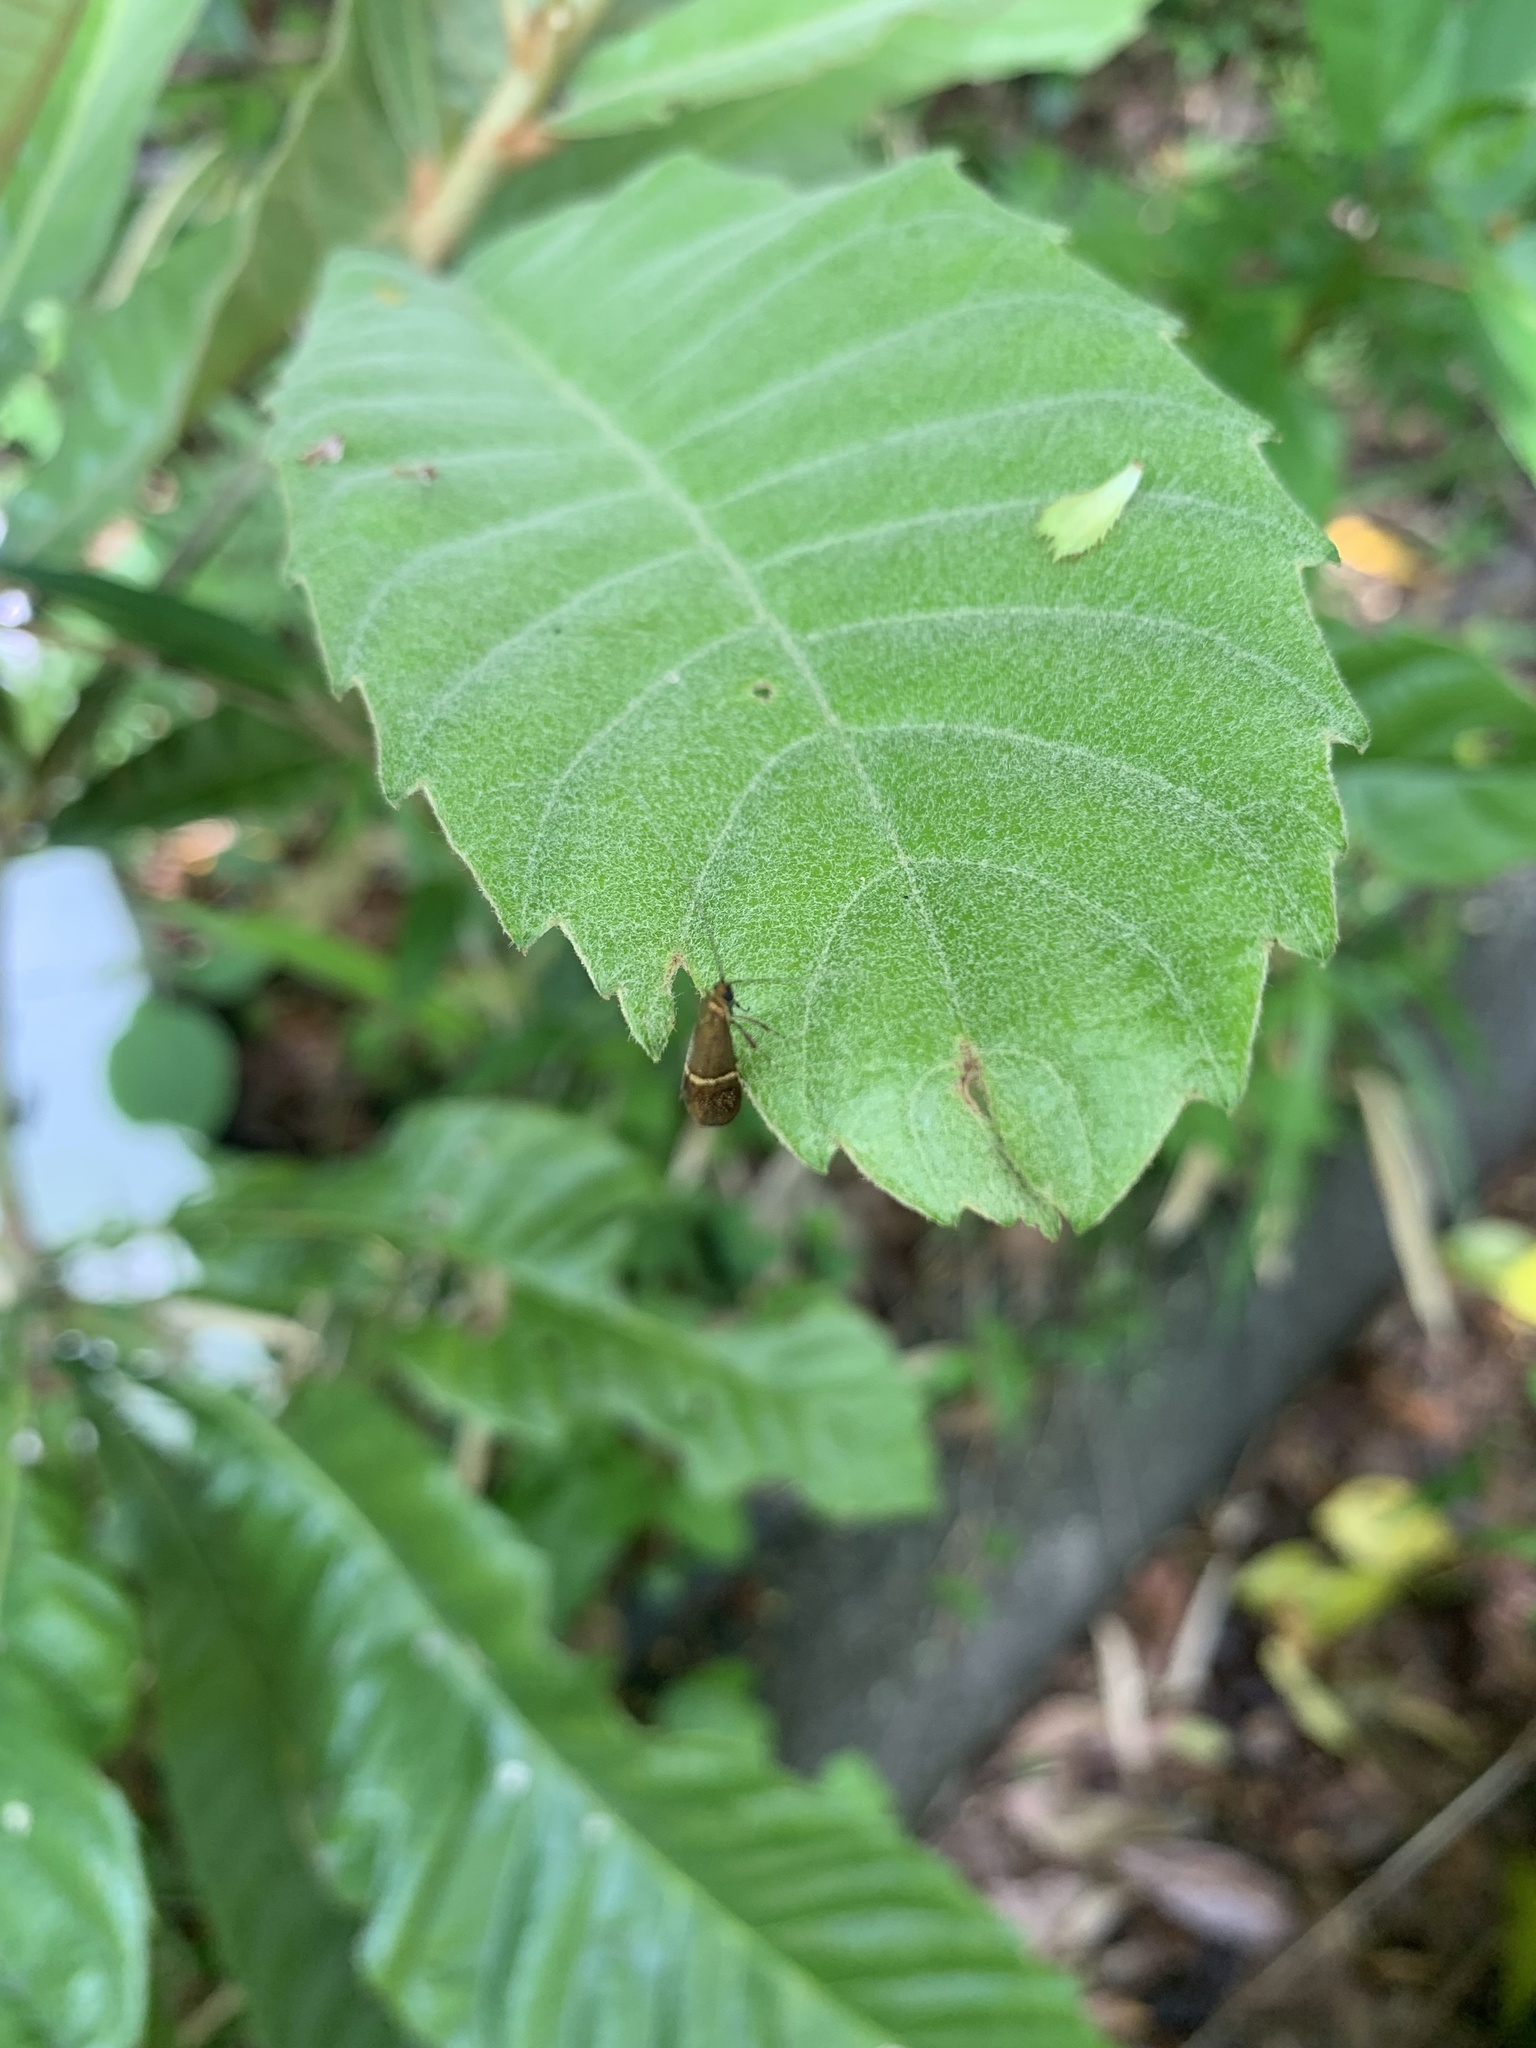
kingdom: Animalia
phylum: Arthropoda
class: Insecta
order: Lepidoptera
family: Adelidae
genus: Nemophora
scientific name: Nemophora aurifera
